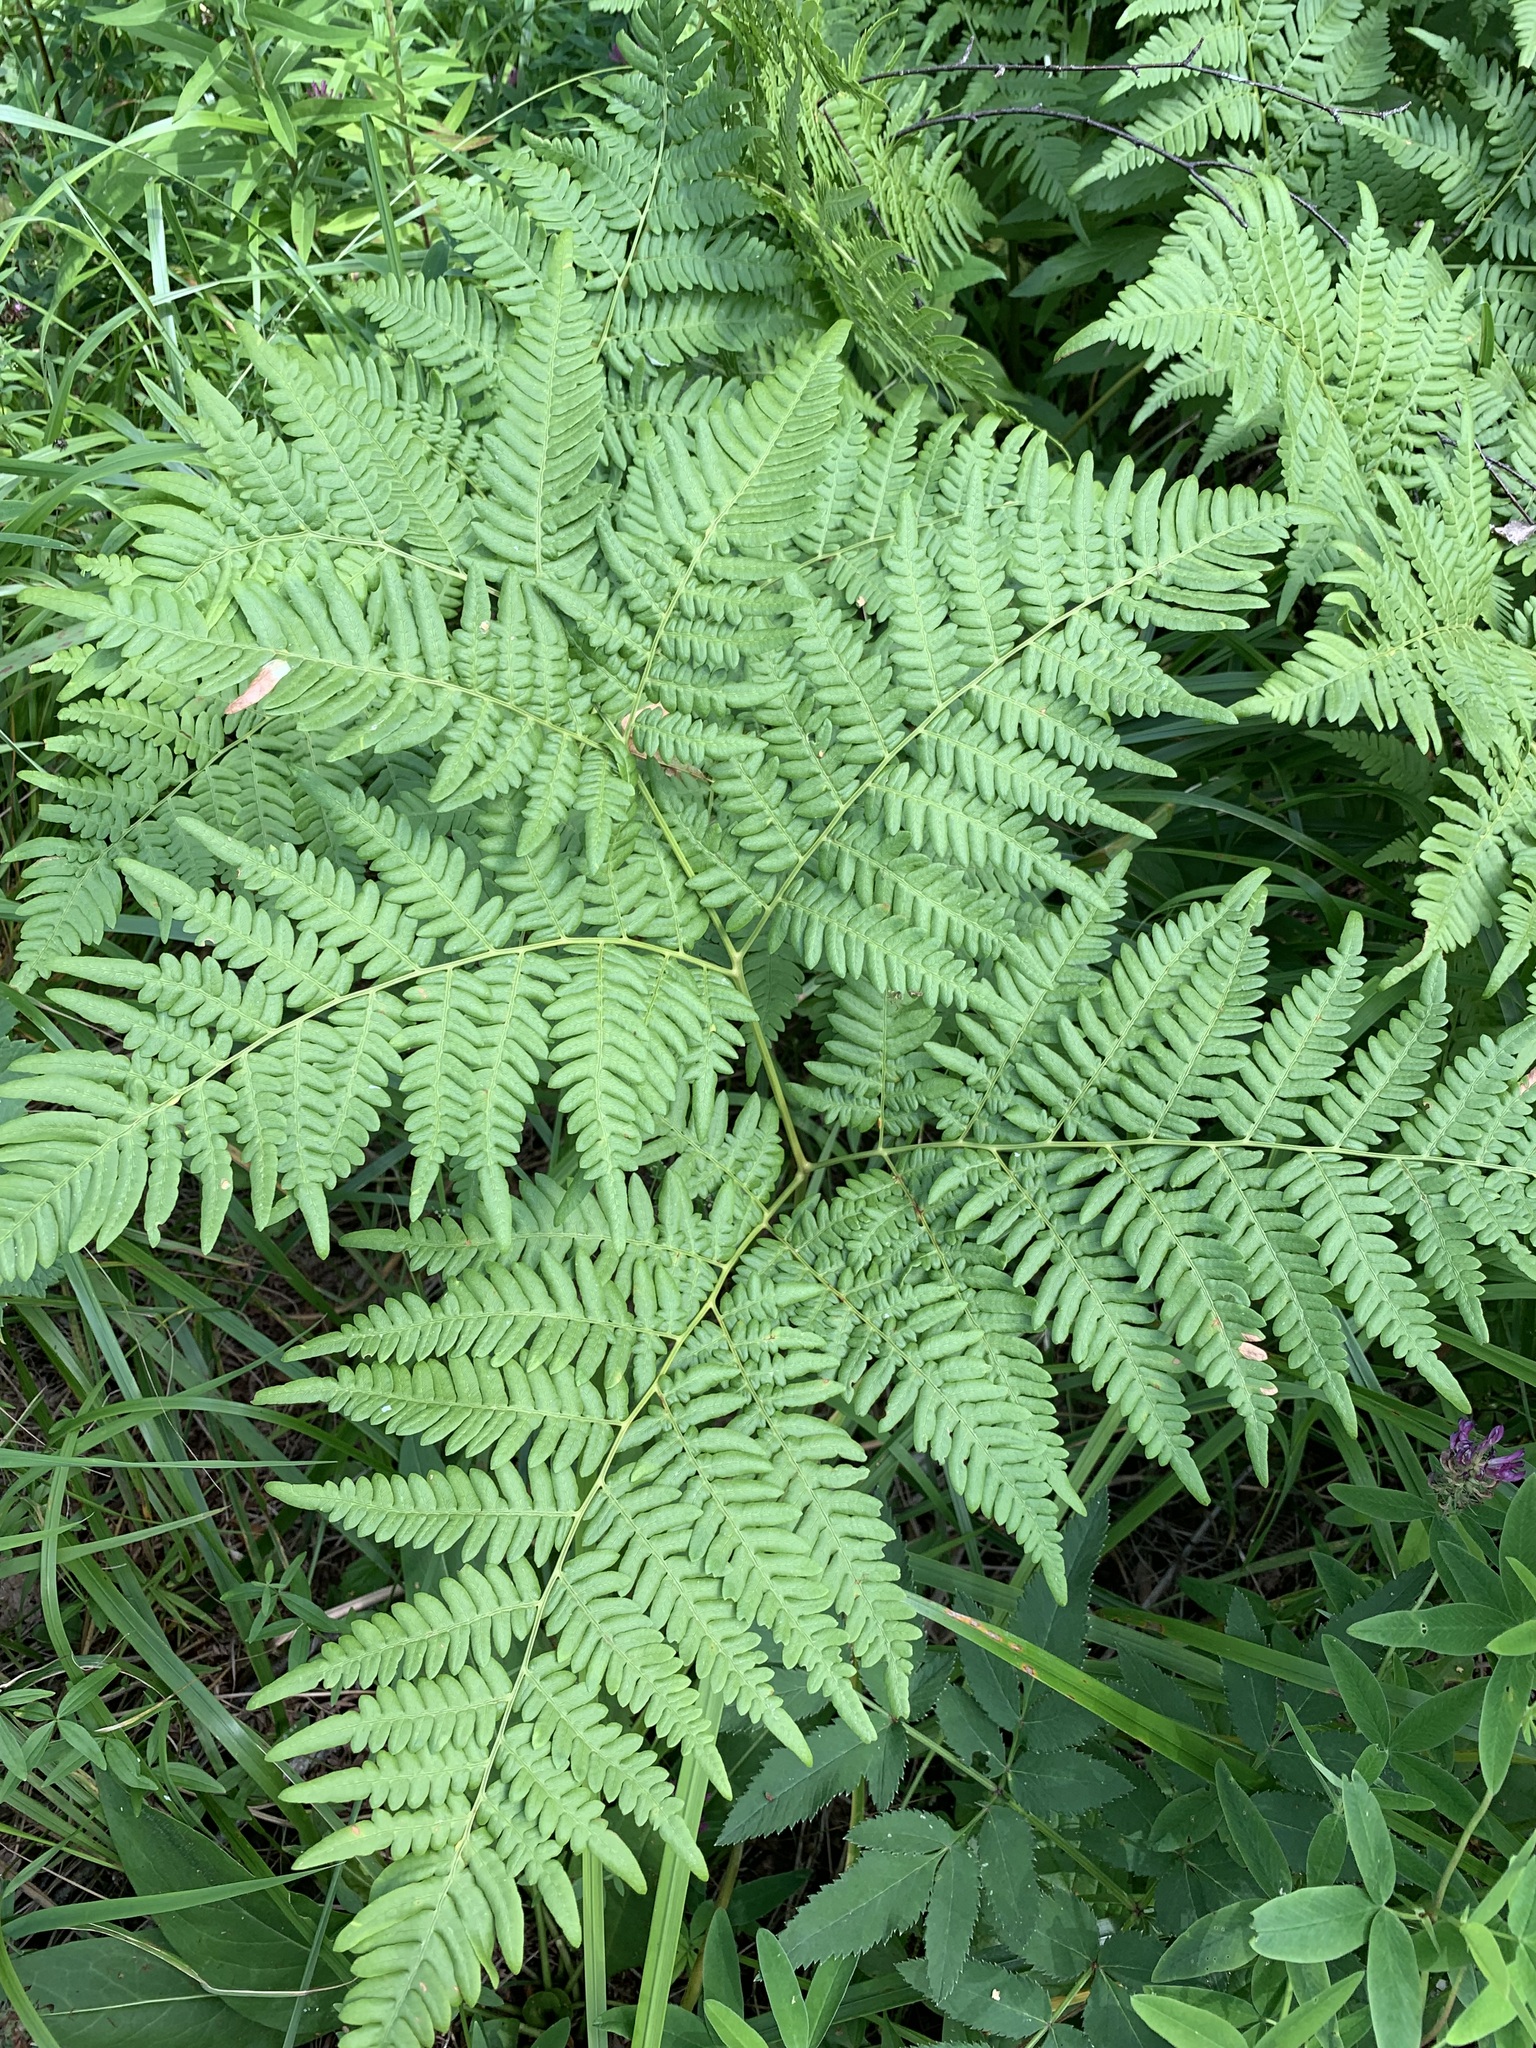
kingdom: Plantae
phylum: Tracheophyta
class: Polypodiopsida
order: Polypodiales
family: Dennstaedtiaceae
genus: Pteridium
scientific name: Pteridium aquilinum
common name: Bracken
